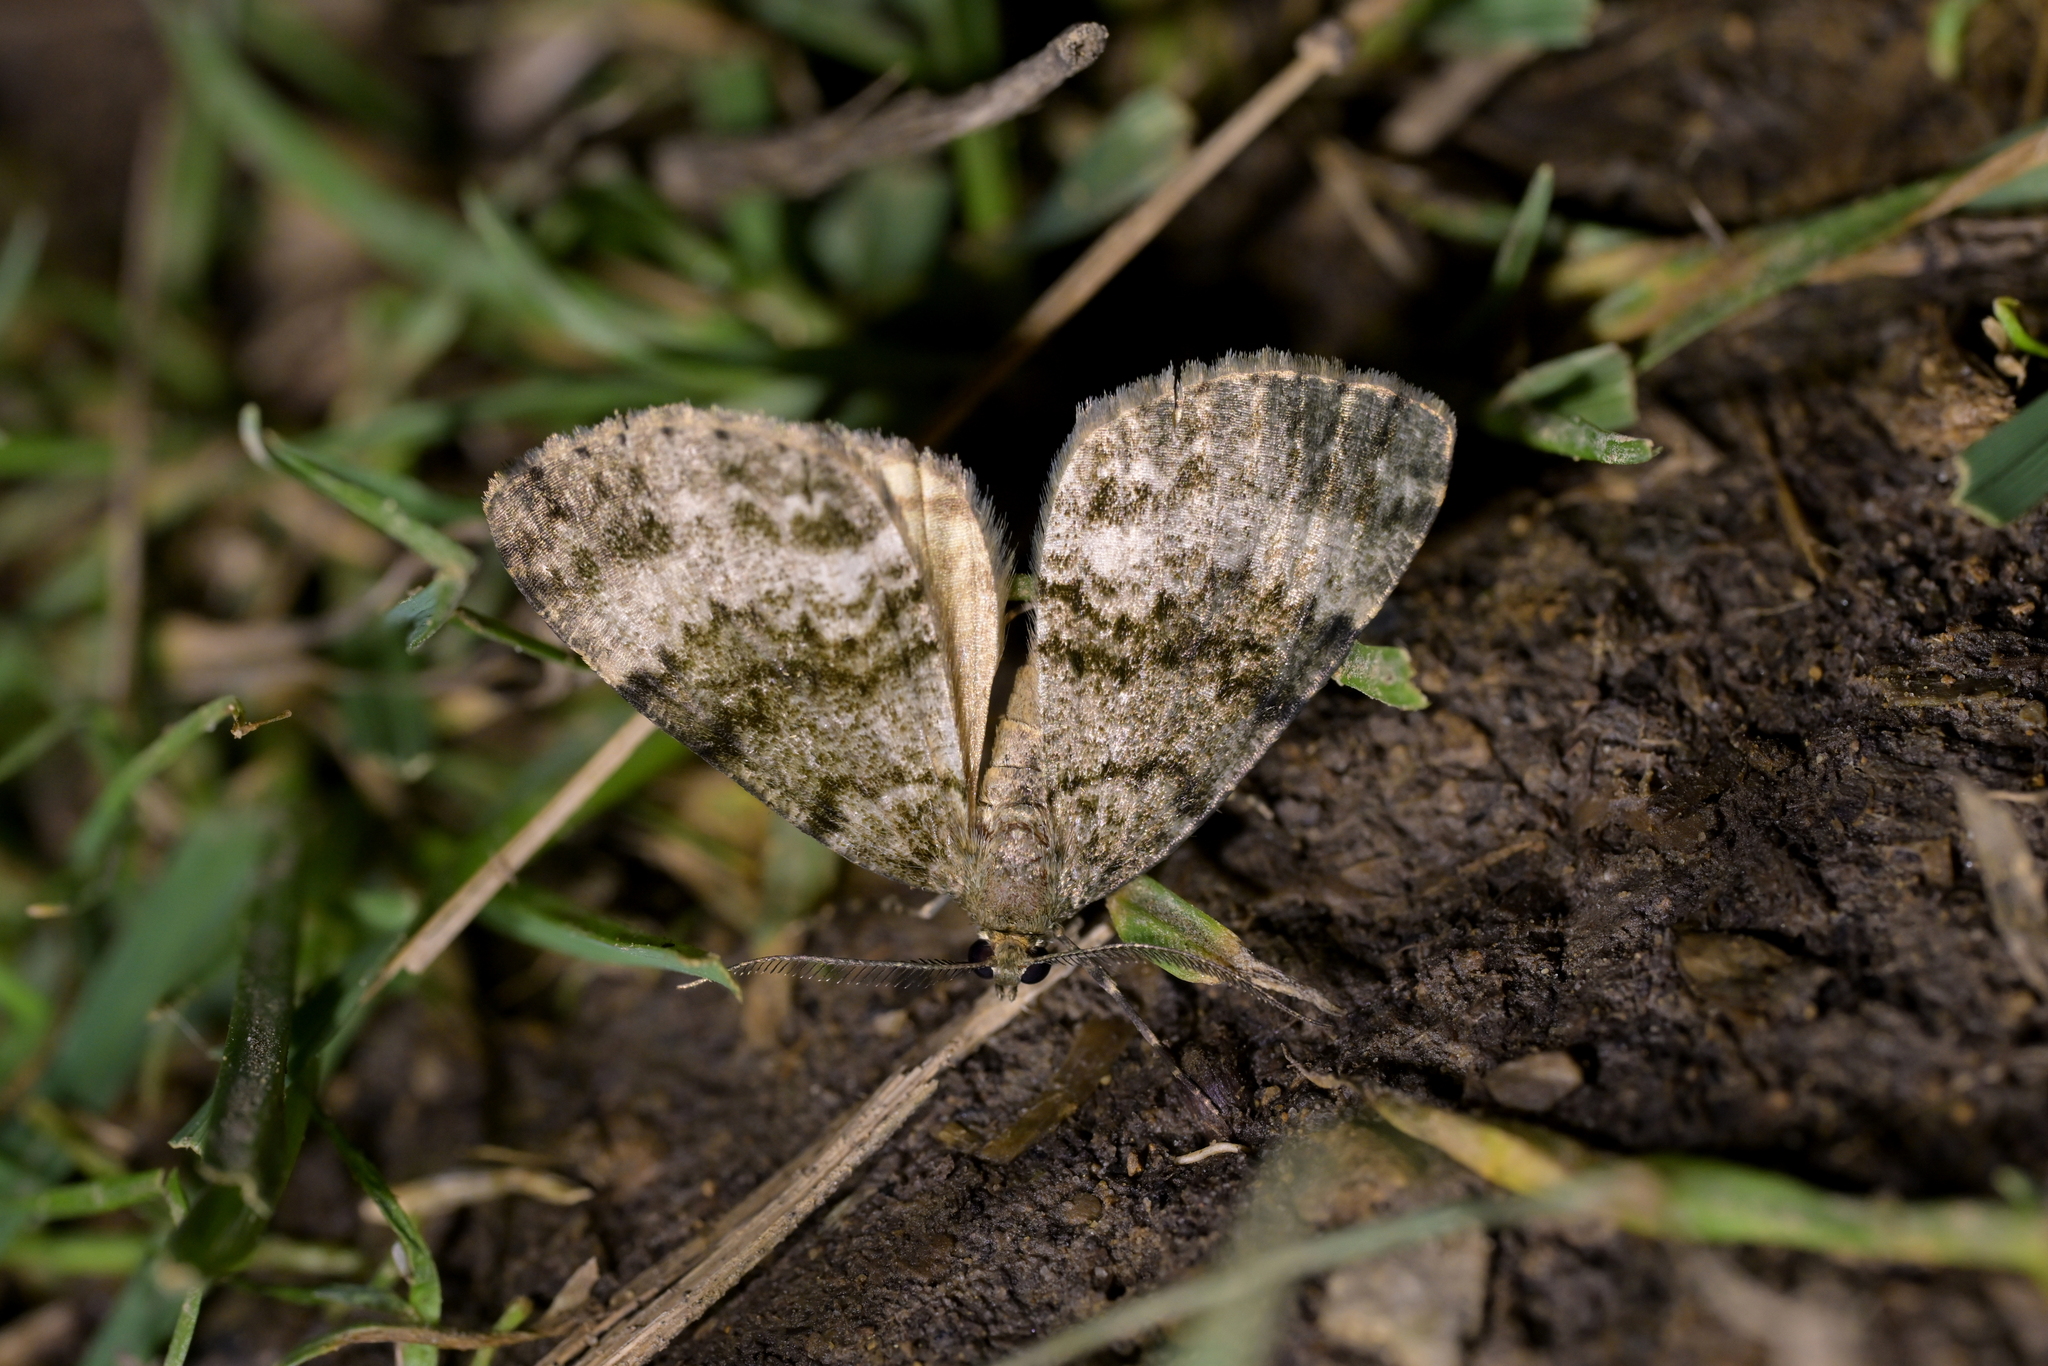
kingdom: Animalia
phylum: Arthropoda
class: Insecta
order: Lepidoptera
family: Geometridae
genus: Pseudocoremia
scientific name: Pseudocoremia indistincta
